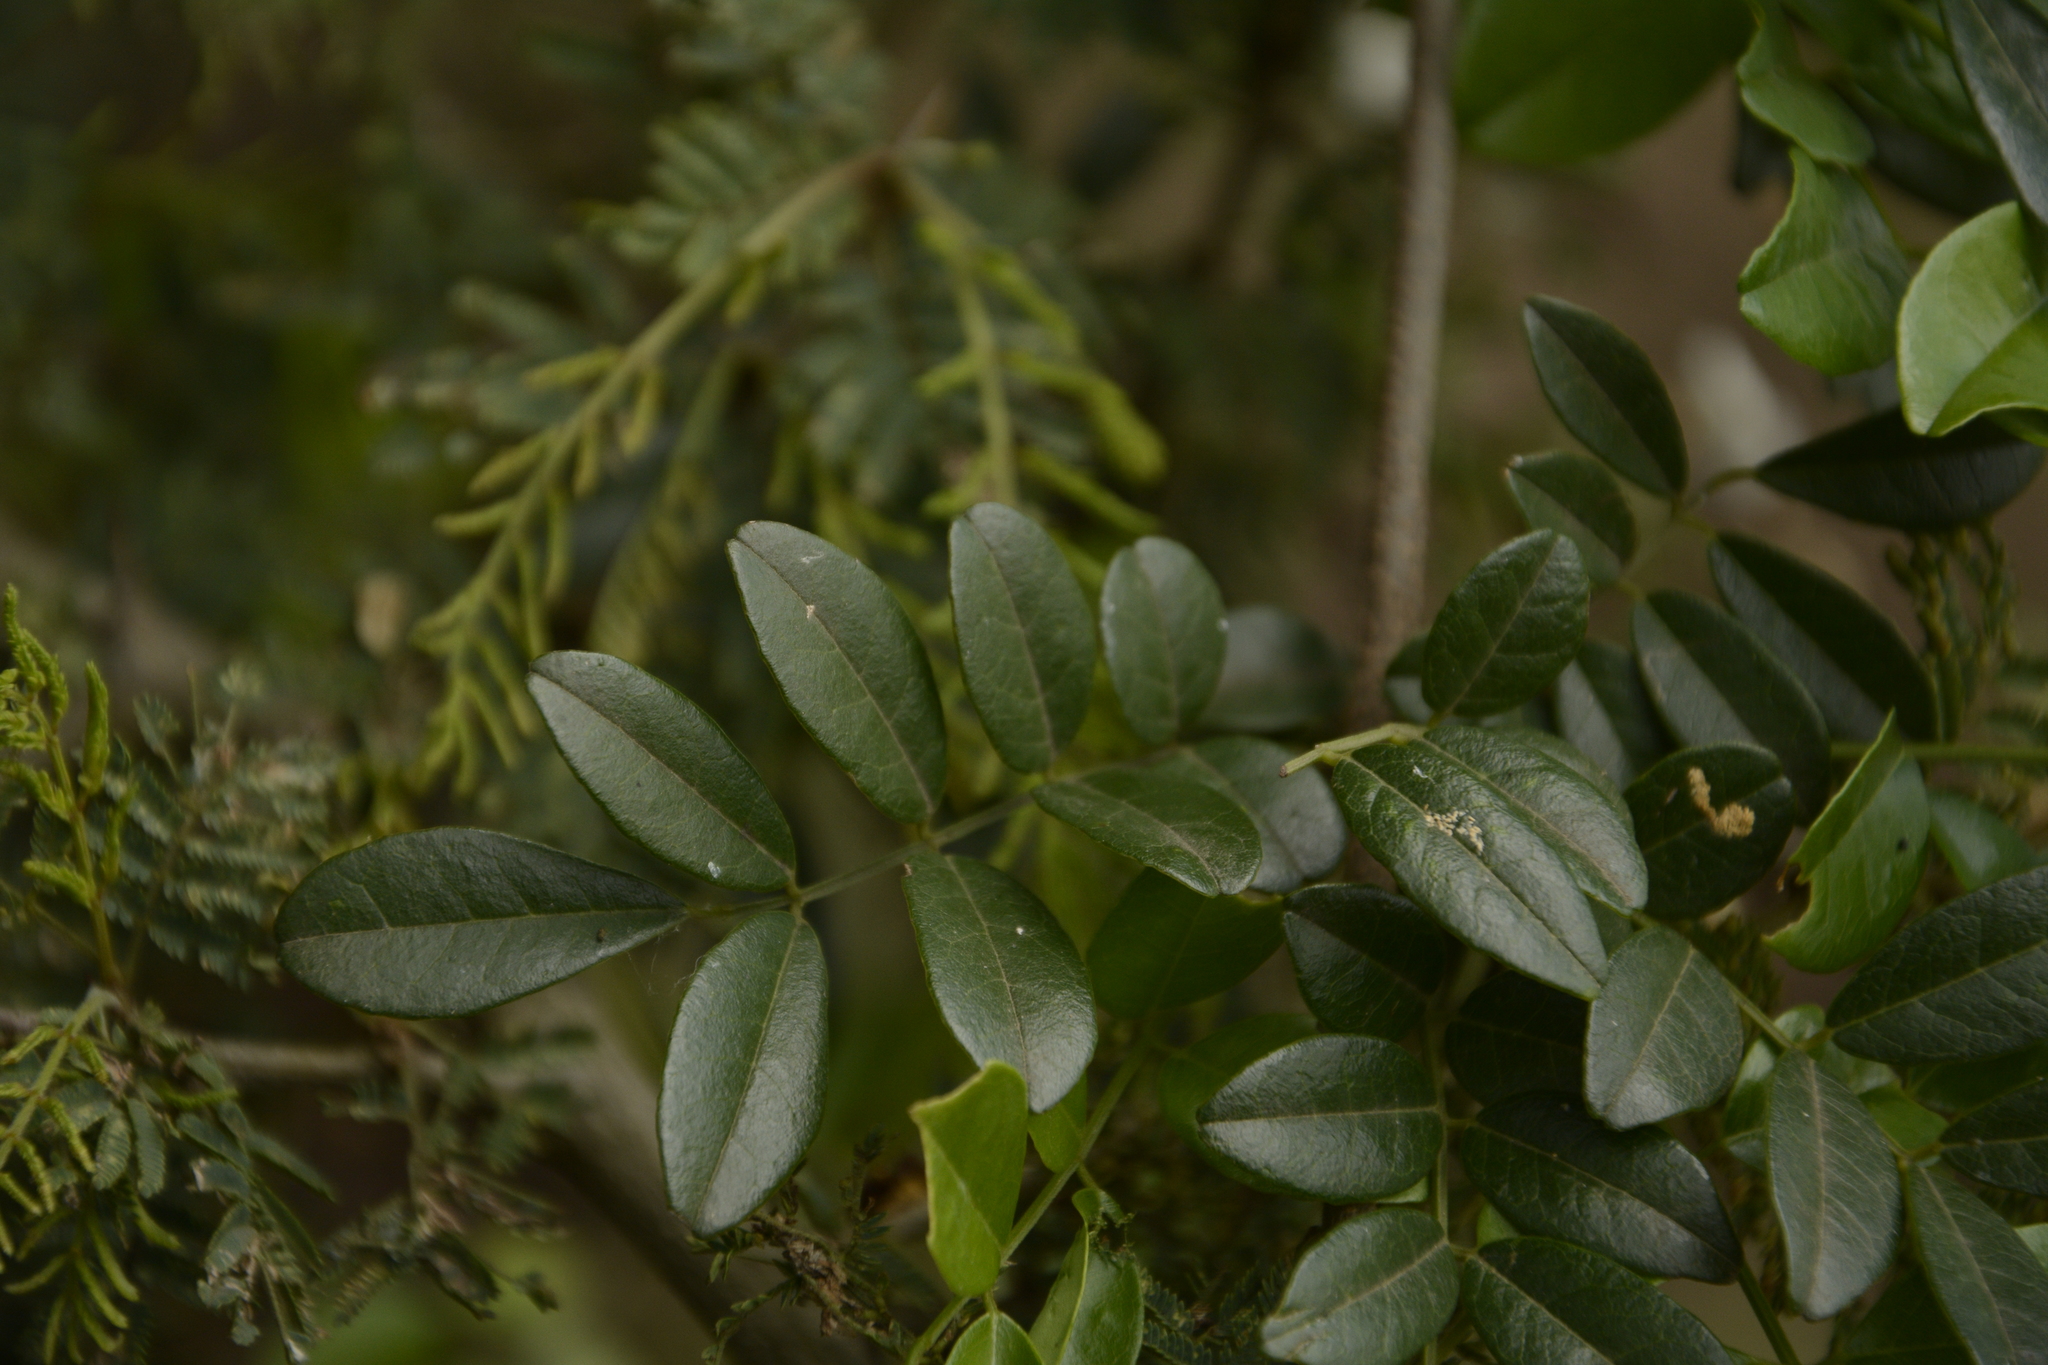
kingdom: Plantae
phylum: Tracheophyta
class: Magnoliopsida
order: Fabales
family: Fabaceae
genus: Brachypterum
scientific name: Brachypterum scandens
